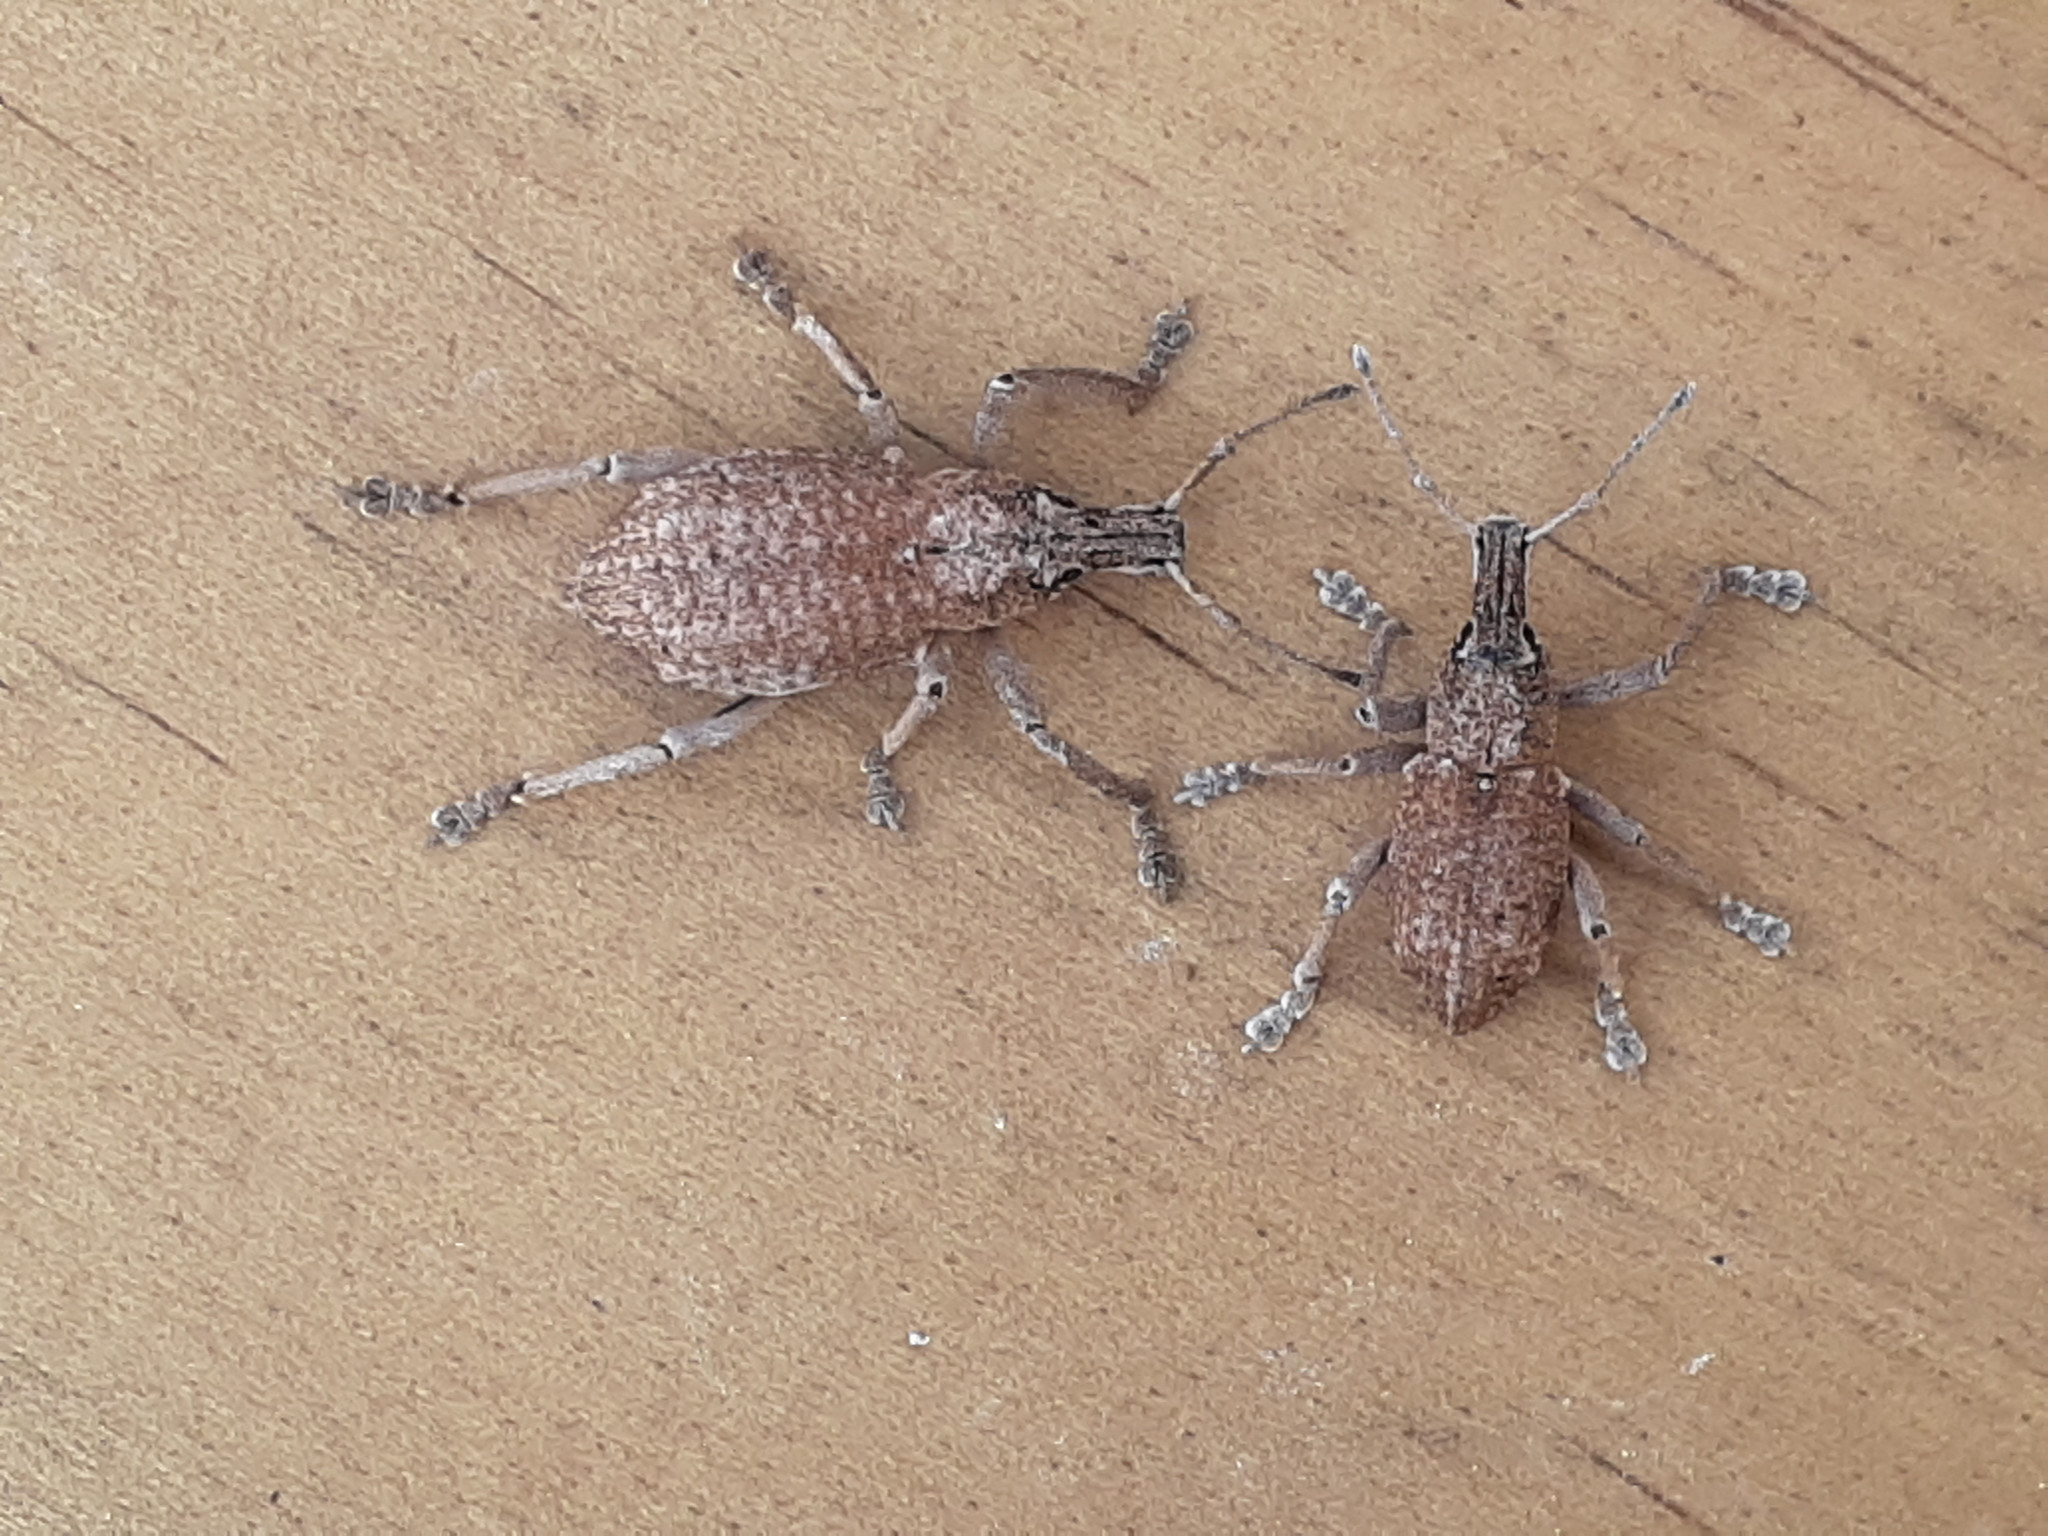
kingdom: Animalia
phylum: Arthropoda
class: Insecta
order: Coleoptera
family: Curculionidae
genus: Leptopius
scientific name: Leptopius robustus
